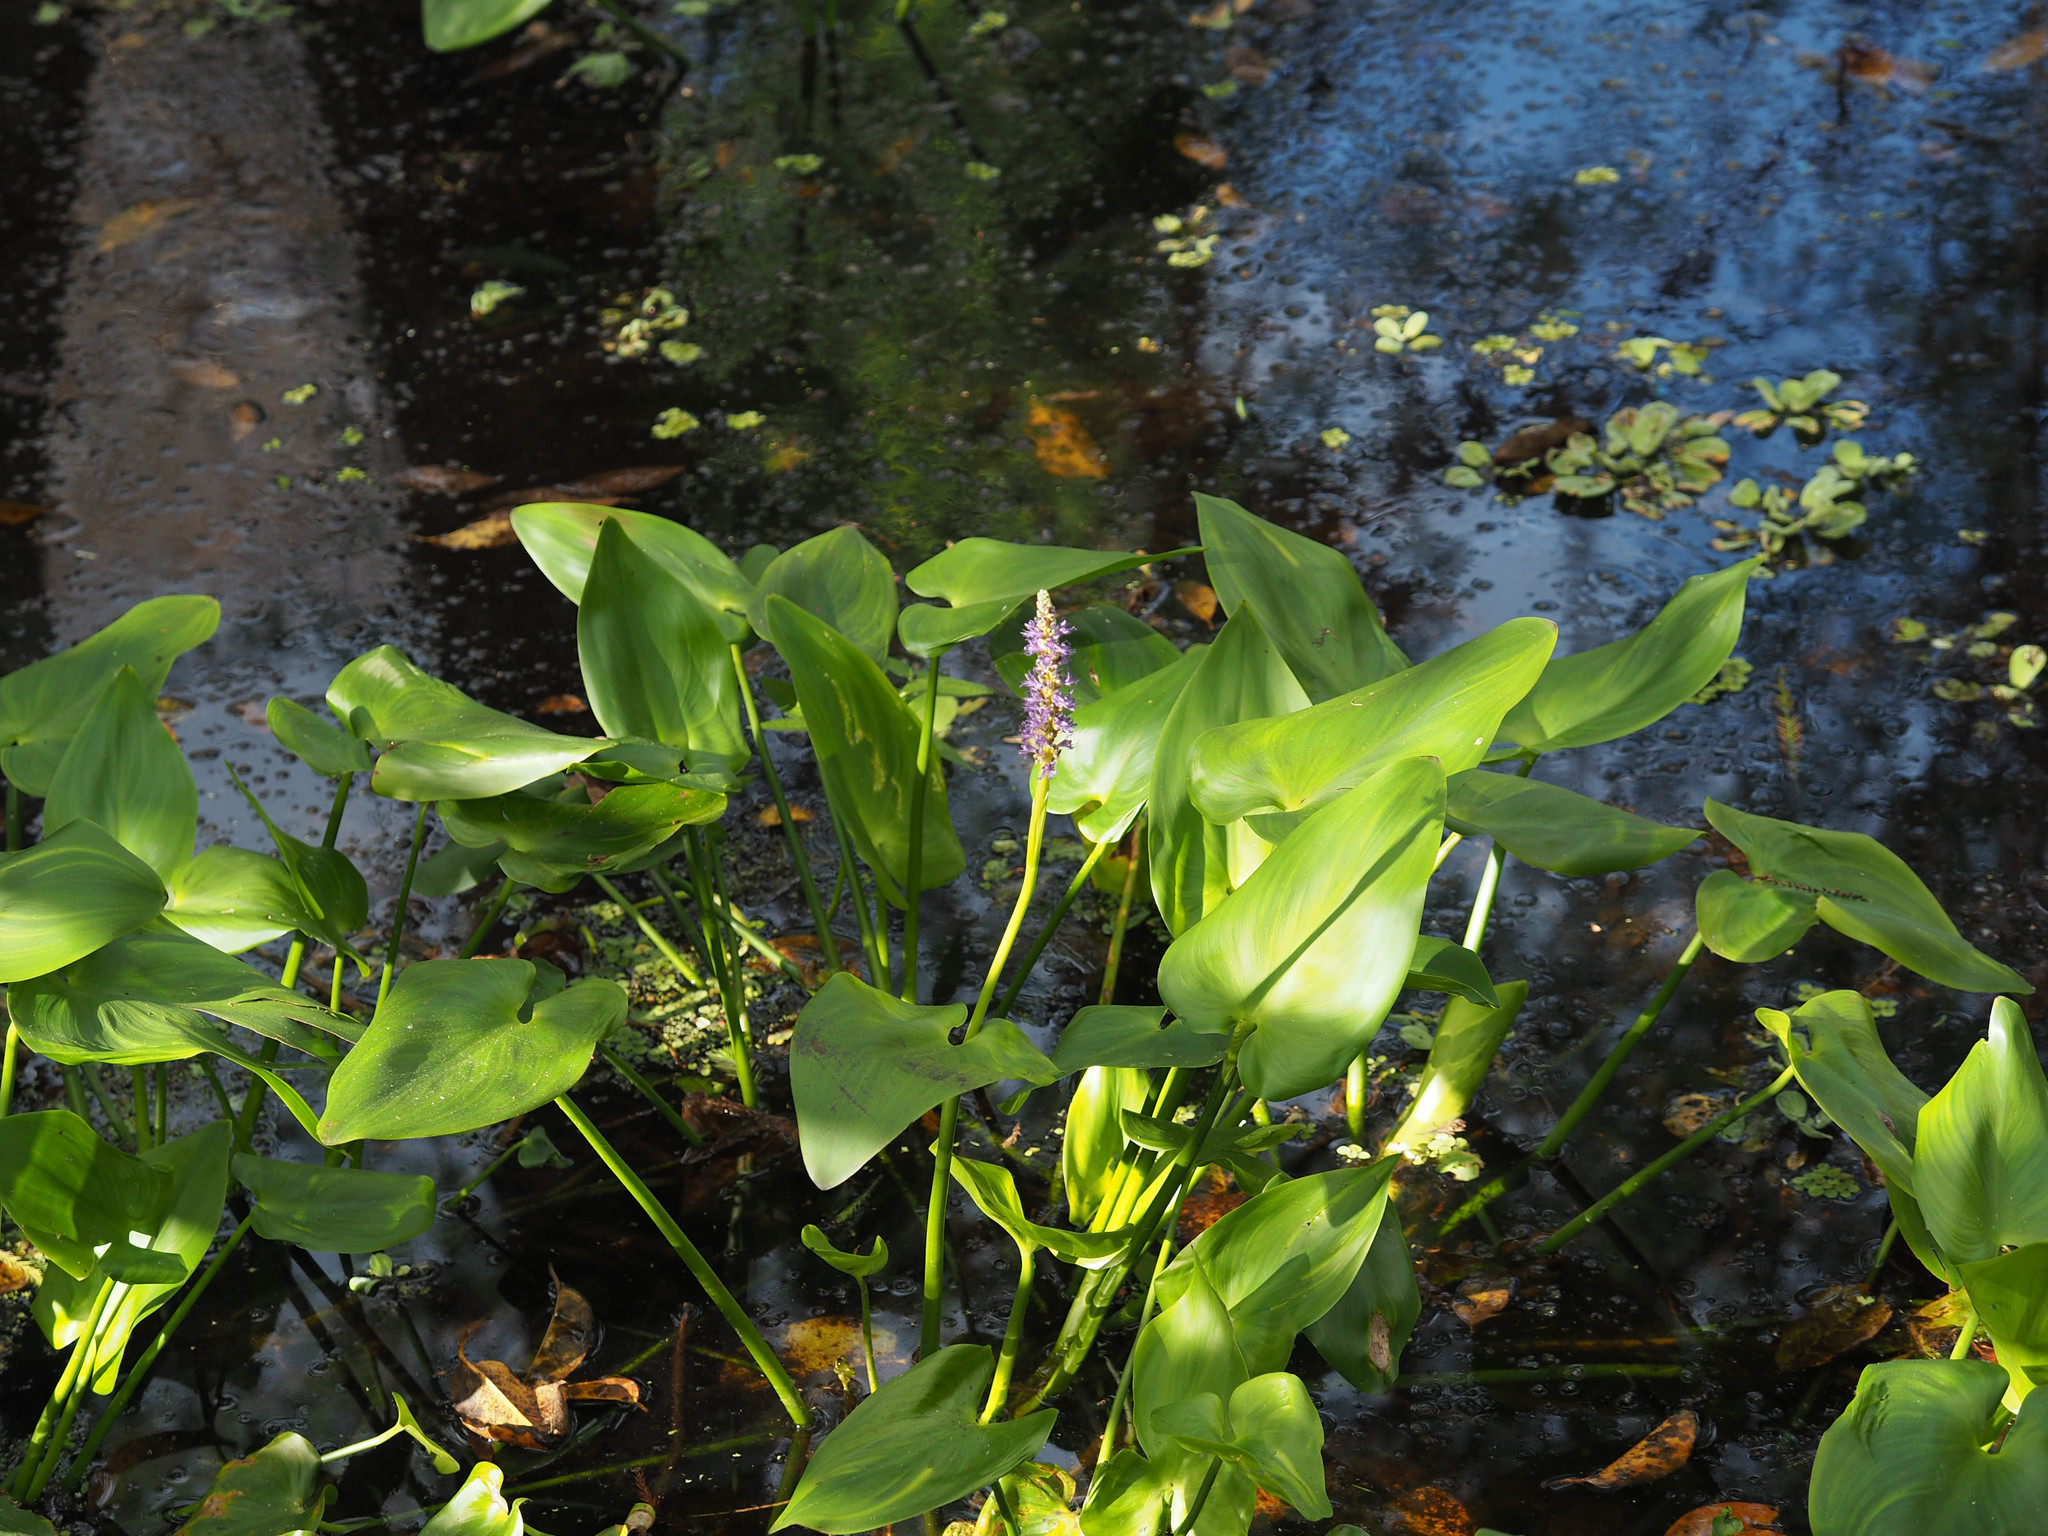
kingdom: Plantae
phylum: Tracheophyta
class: Liliopsida
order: Commelinales
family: Pontederiaceae
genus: Pontederia
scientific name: Pontederia cordata
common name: Pickerelweed
